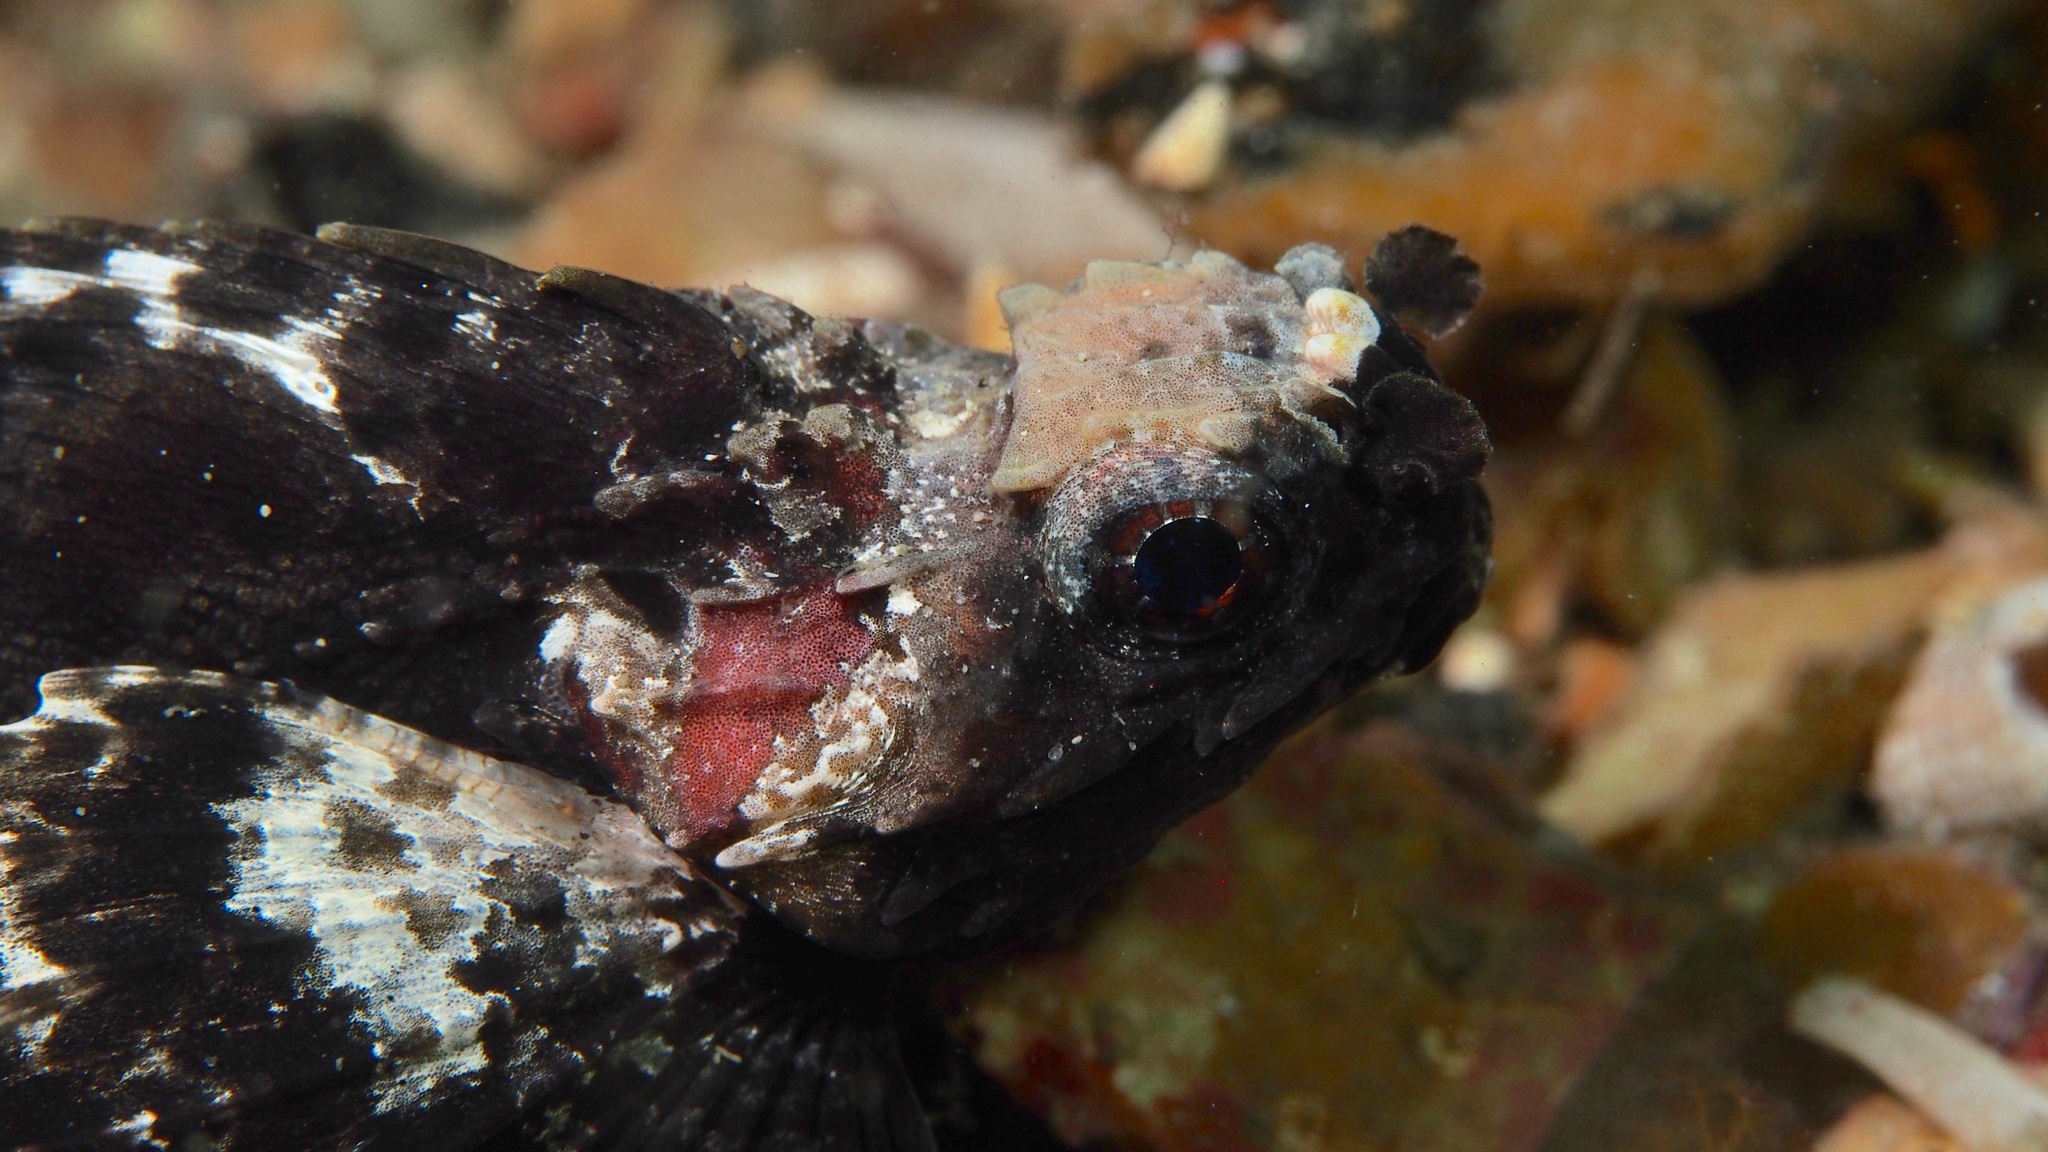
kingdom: Animalia
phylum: Chordata
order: Scorpaeniformes
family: Tetrarogidae
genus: Glyptauchen
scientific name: Glyptauchen panduratus
